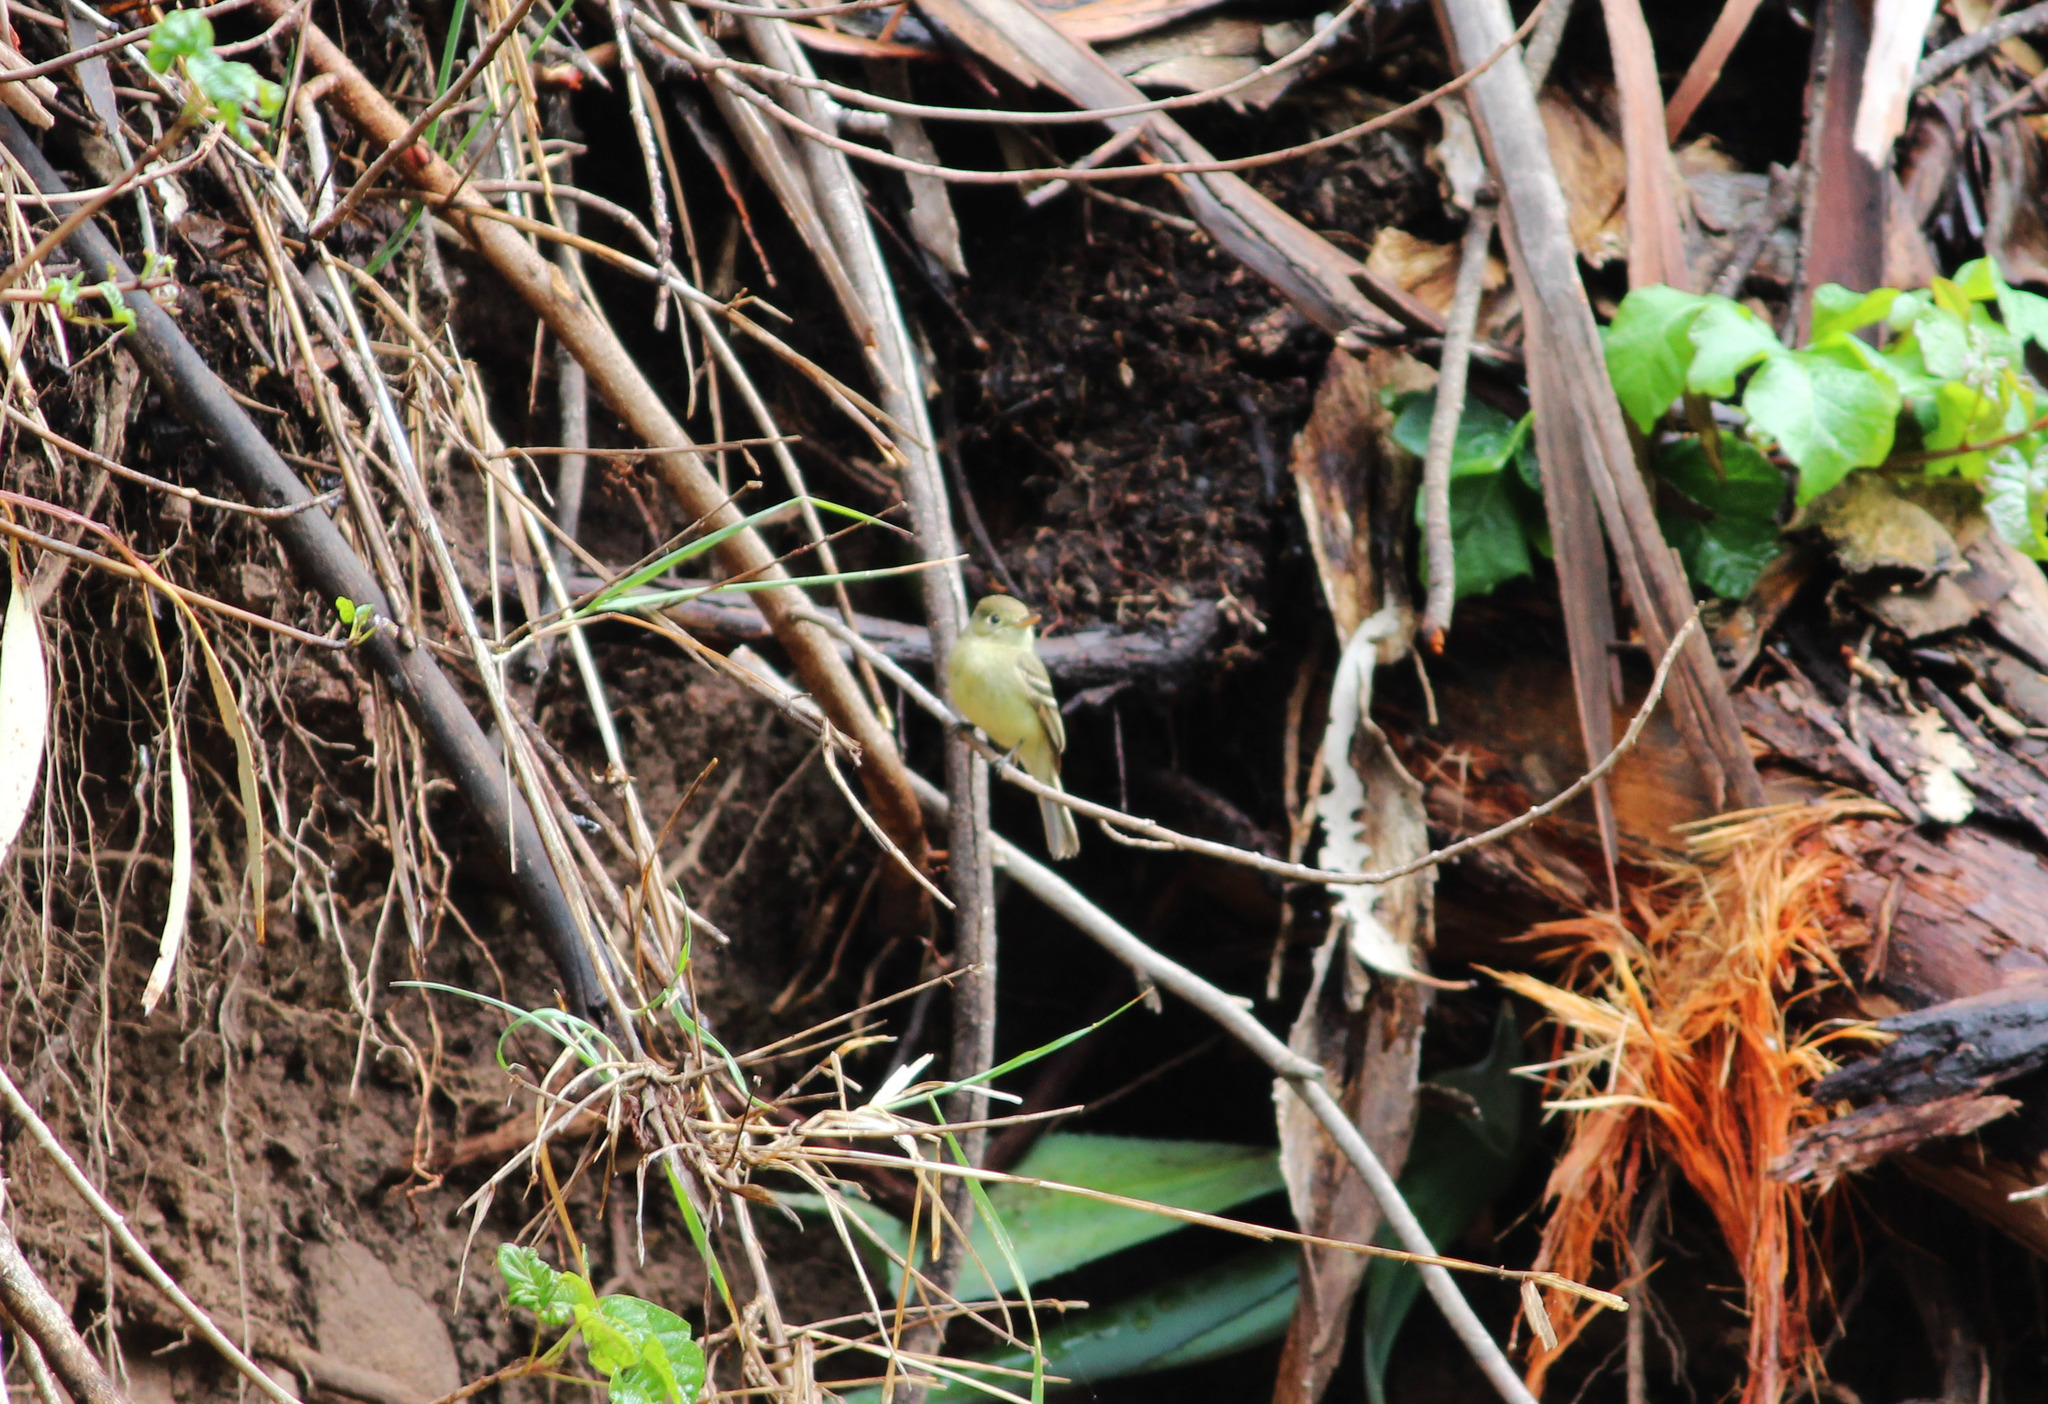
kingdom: Animalia
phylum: Chordata
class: Aves
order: Passeriformes
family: Tyrannidae
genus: Empidonax
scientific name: Empidonax difficilis
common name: Pacific-slope flycatcher
